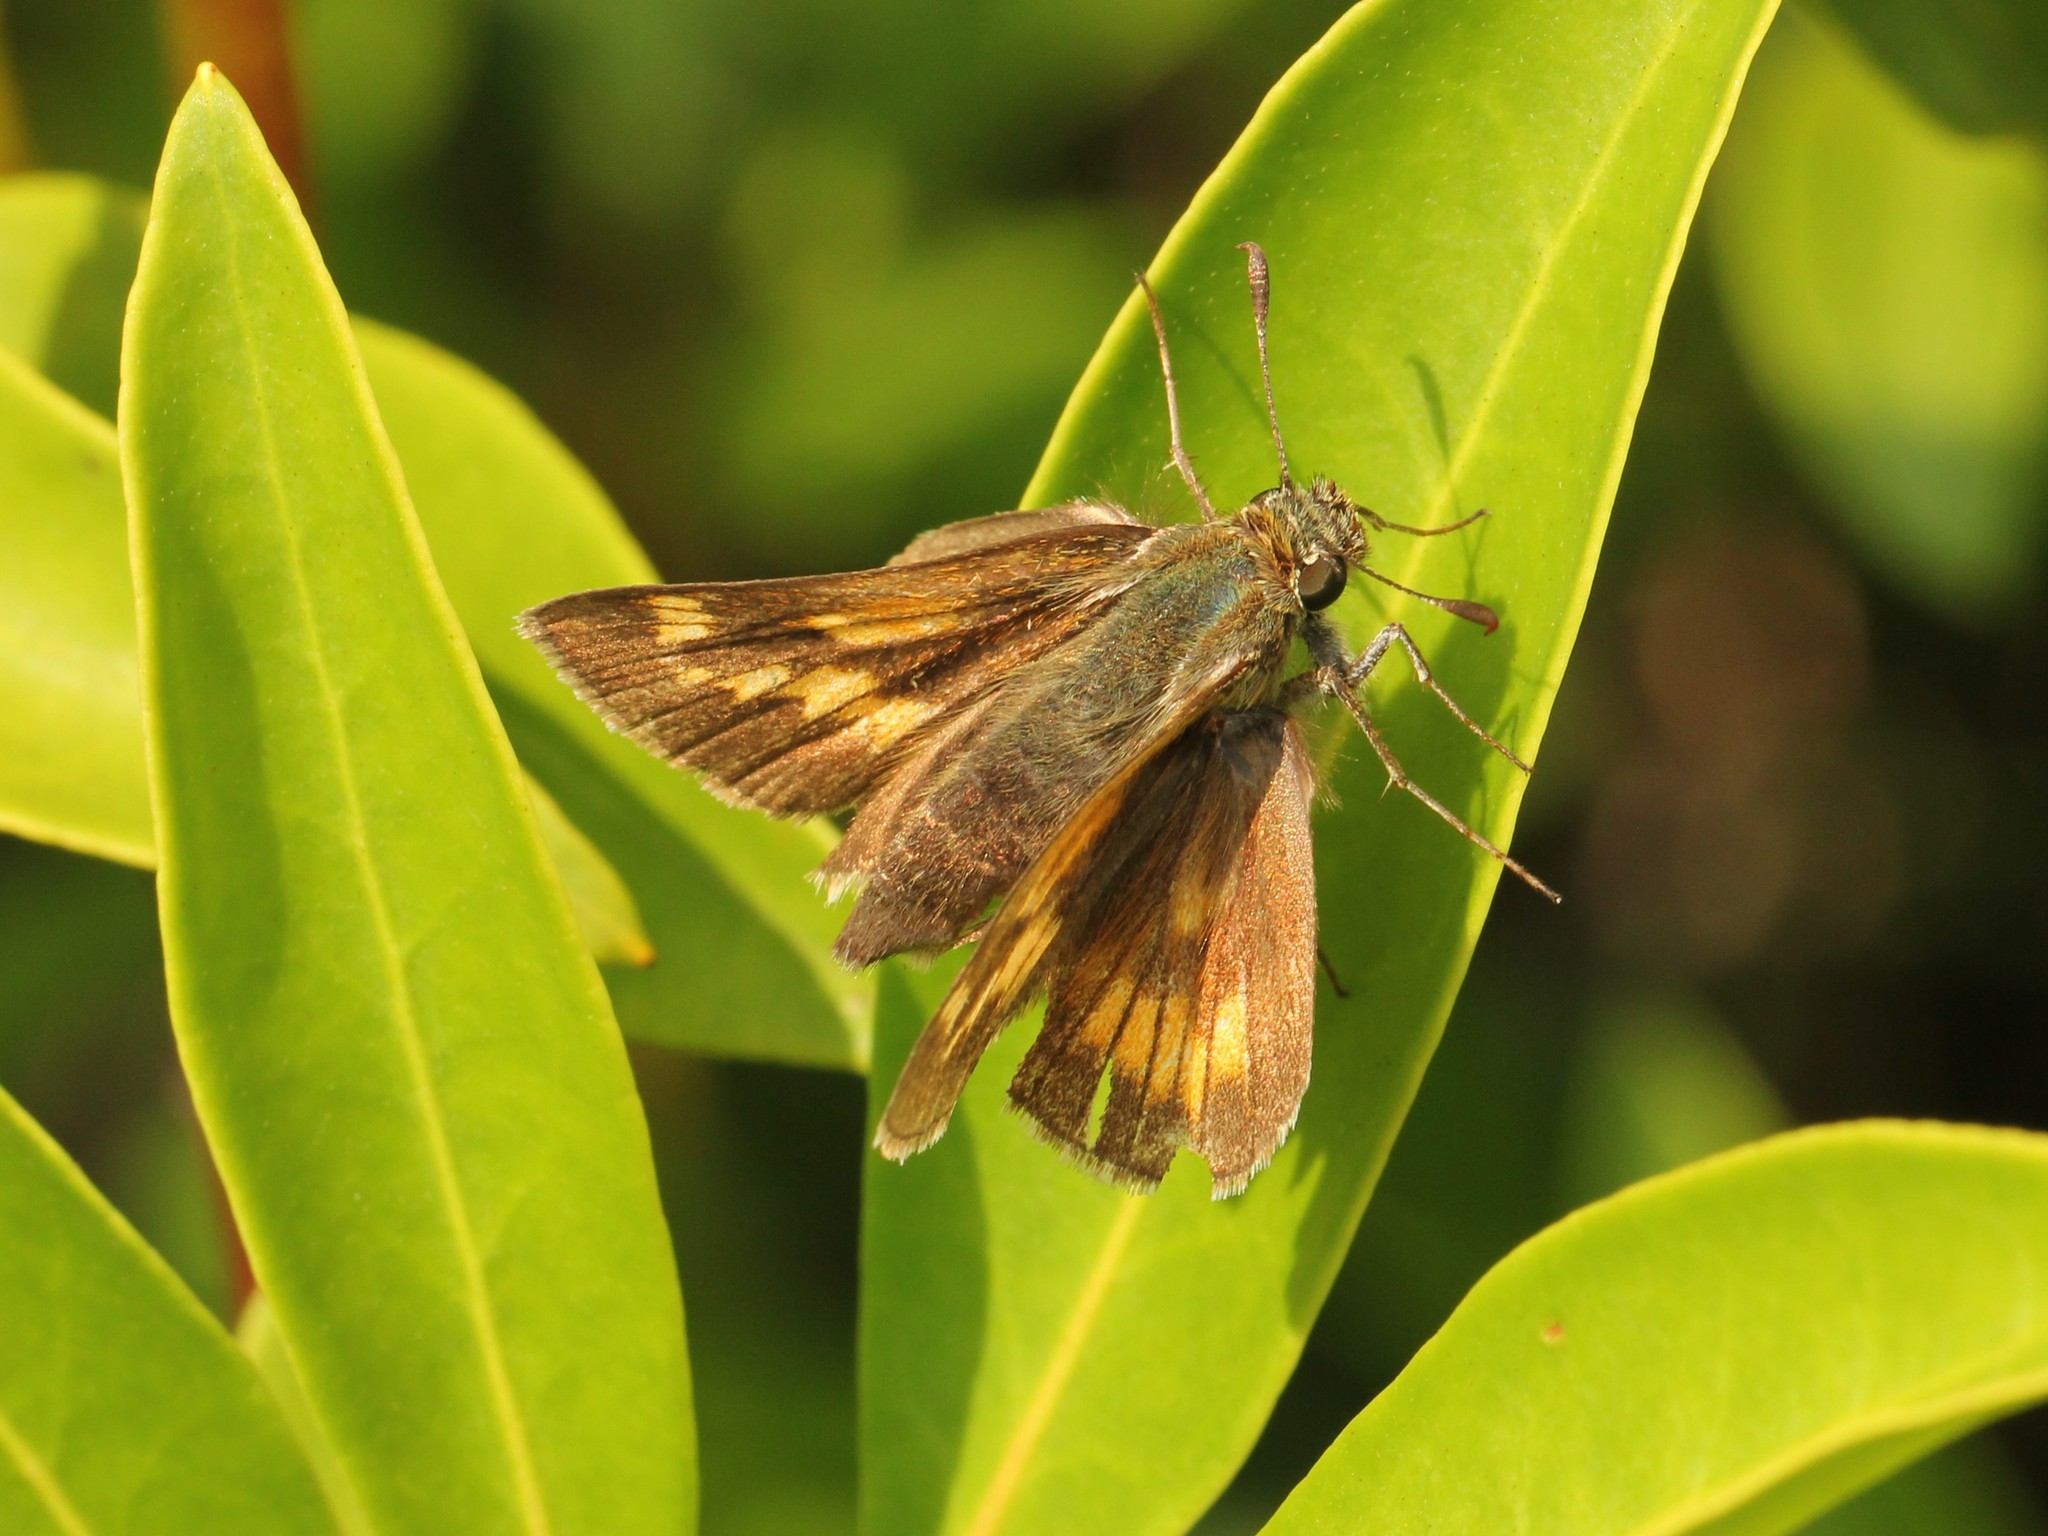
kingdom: Animalia
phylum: Arthropoda
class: Insecta
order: Lepidoptera
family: Hesperiidae
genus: Polites
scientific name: Polites mystic
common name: Long dash
